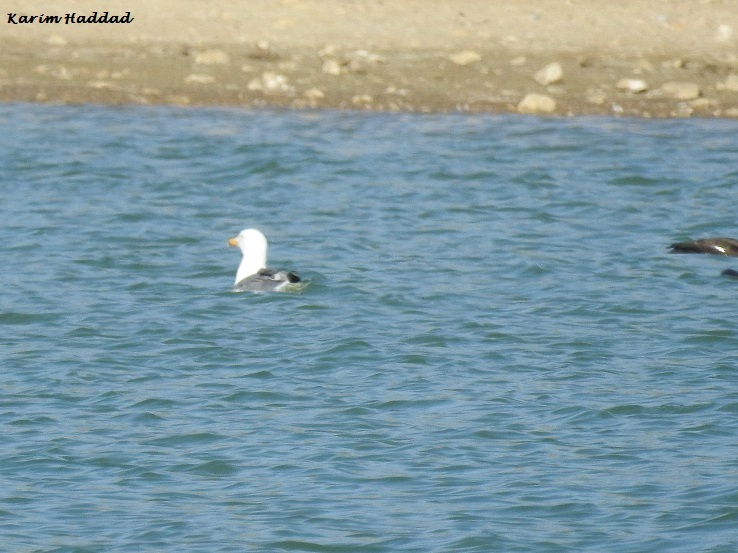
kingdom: Animalia
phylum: Chordata
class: Aves
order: Charadriiformes
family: Laridae
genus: Larus
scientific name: Larus michahellis
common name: Yellow-legged gull
